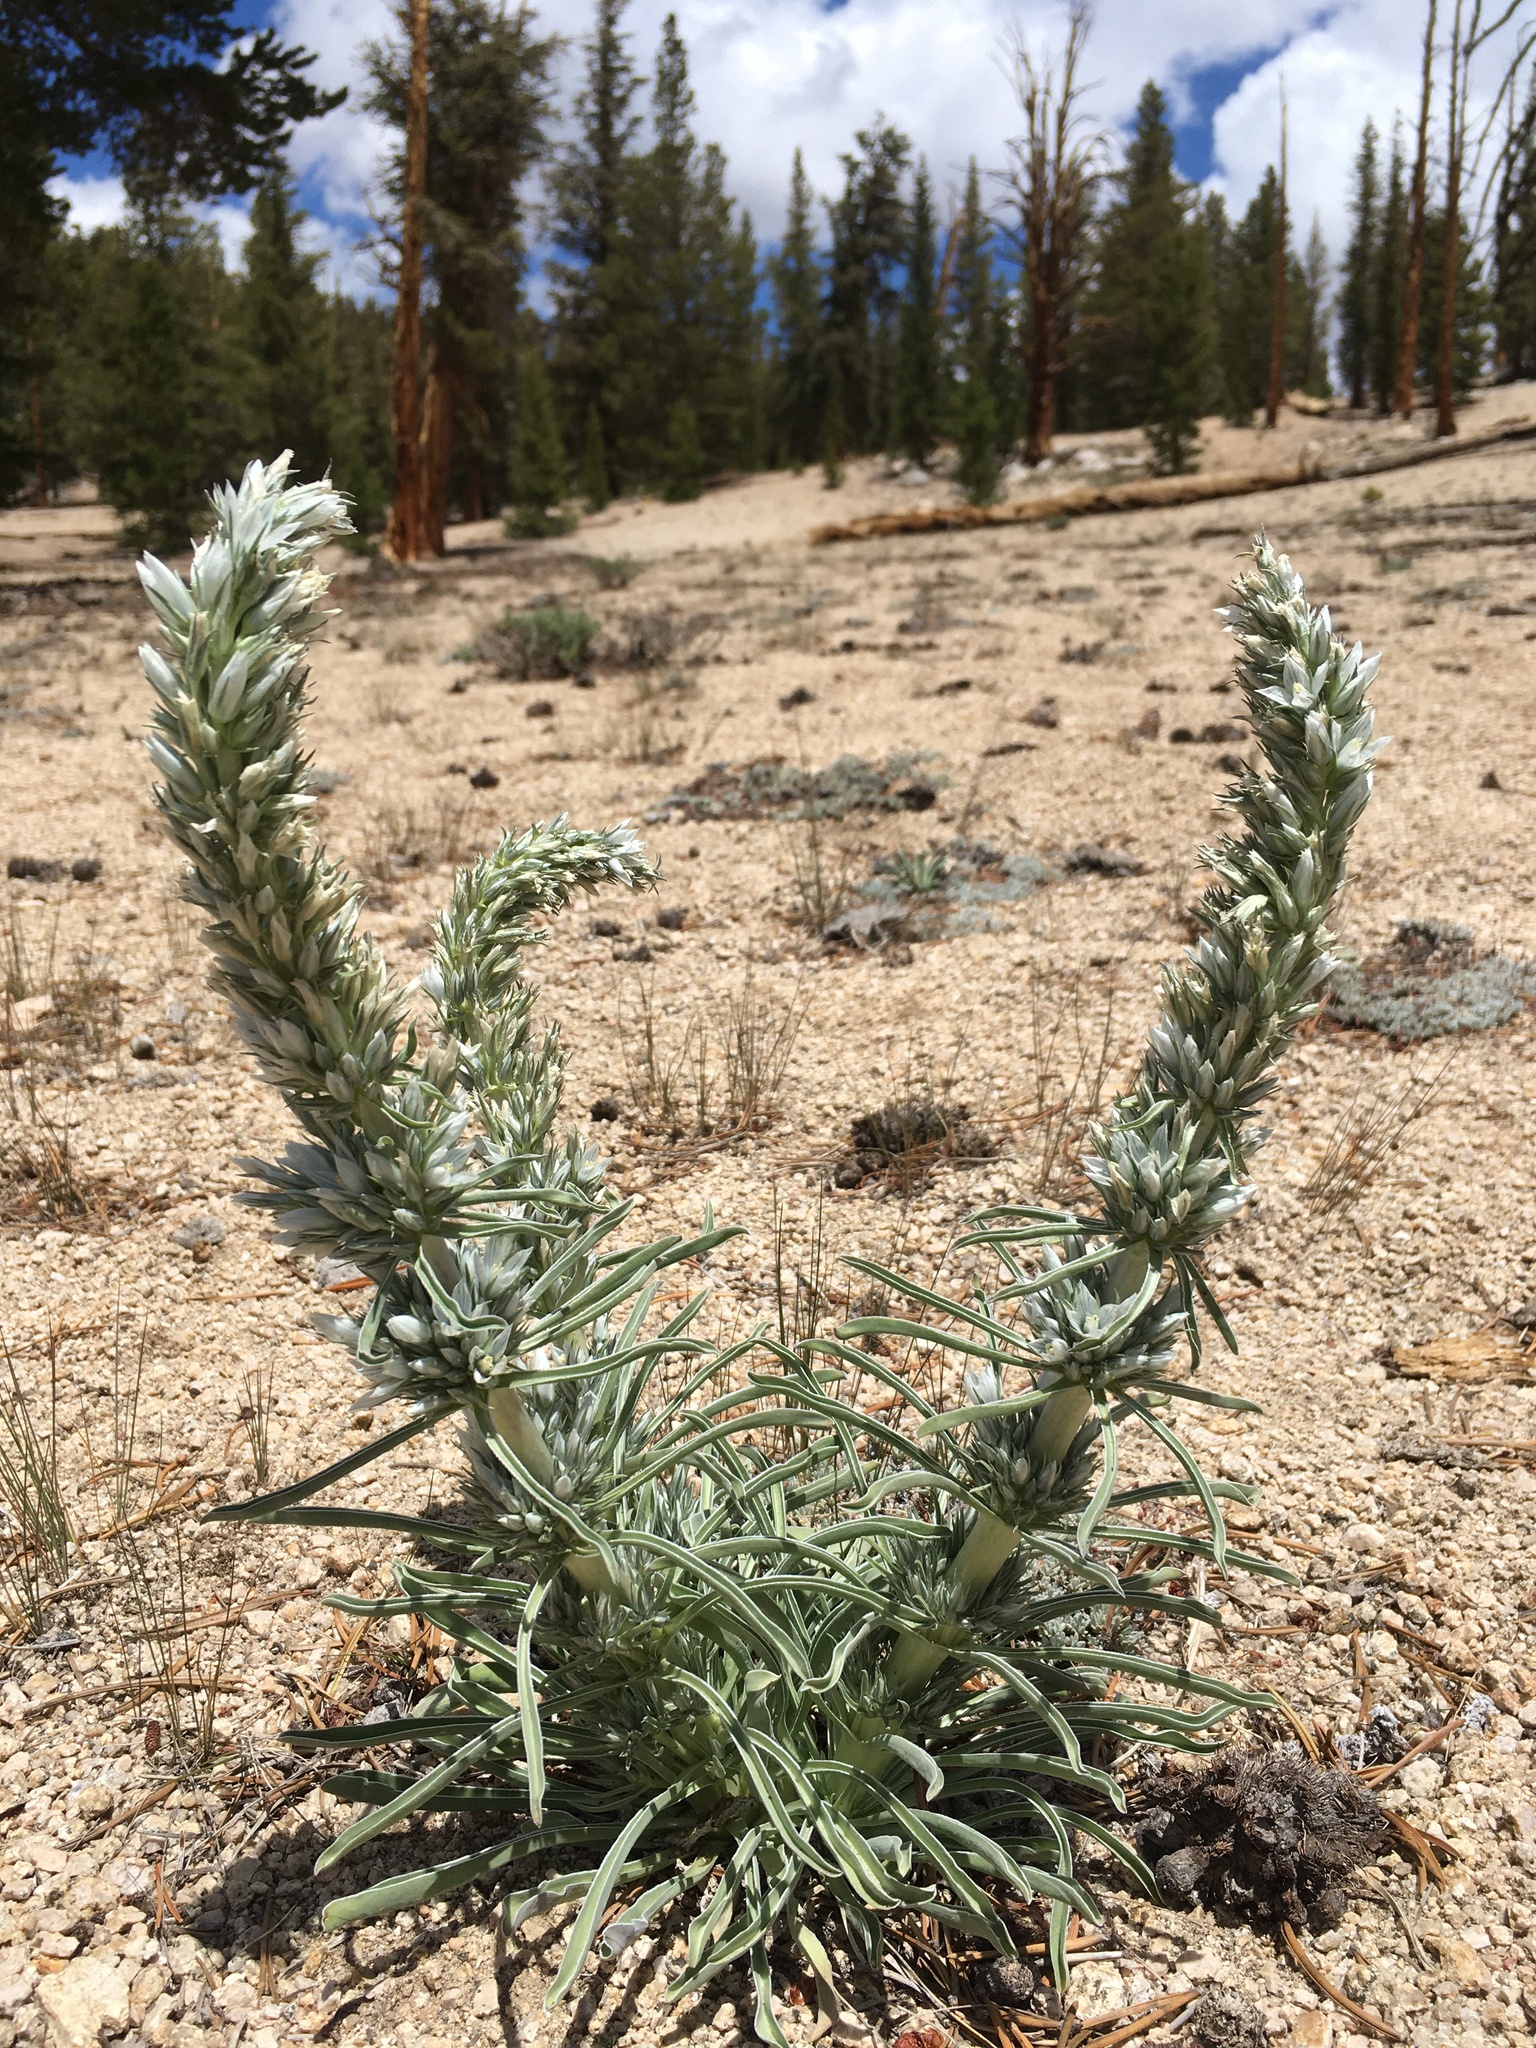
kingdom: Plantae
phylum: Tracheophyta
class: Magnoliopsida
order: Gentianales
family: Gentianaceae
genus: Frasera
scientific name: Frasera tubulosa
